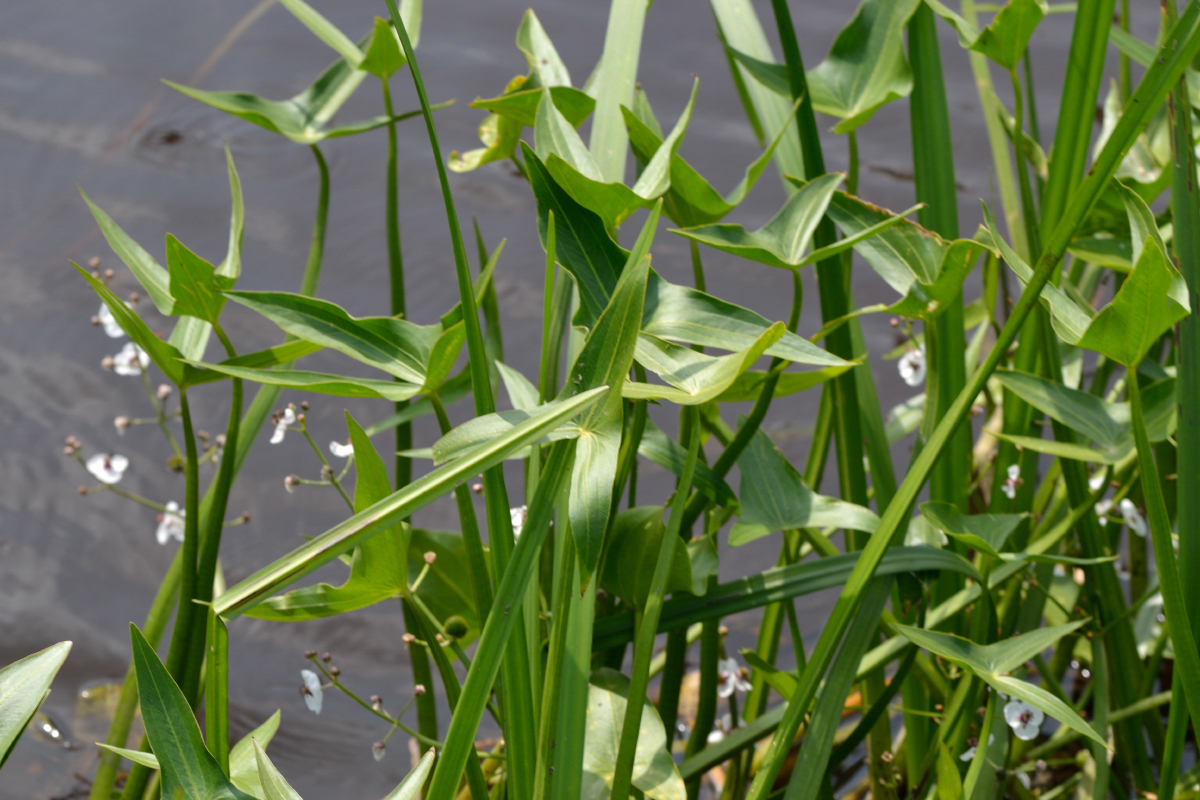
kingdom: Plantae
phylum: Tracheophyta
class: Liliopsida
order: Alismatales
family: Alismataceae
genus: Sagittaria
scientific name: Sagittaria sagittifolia
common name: Arrowhead
